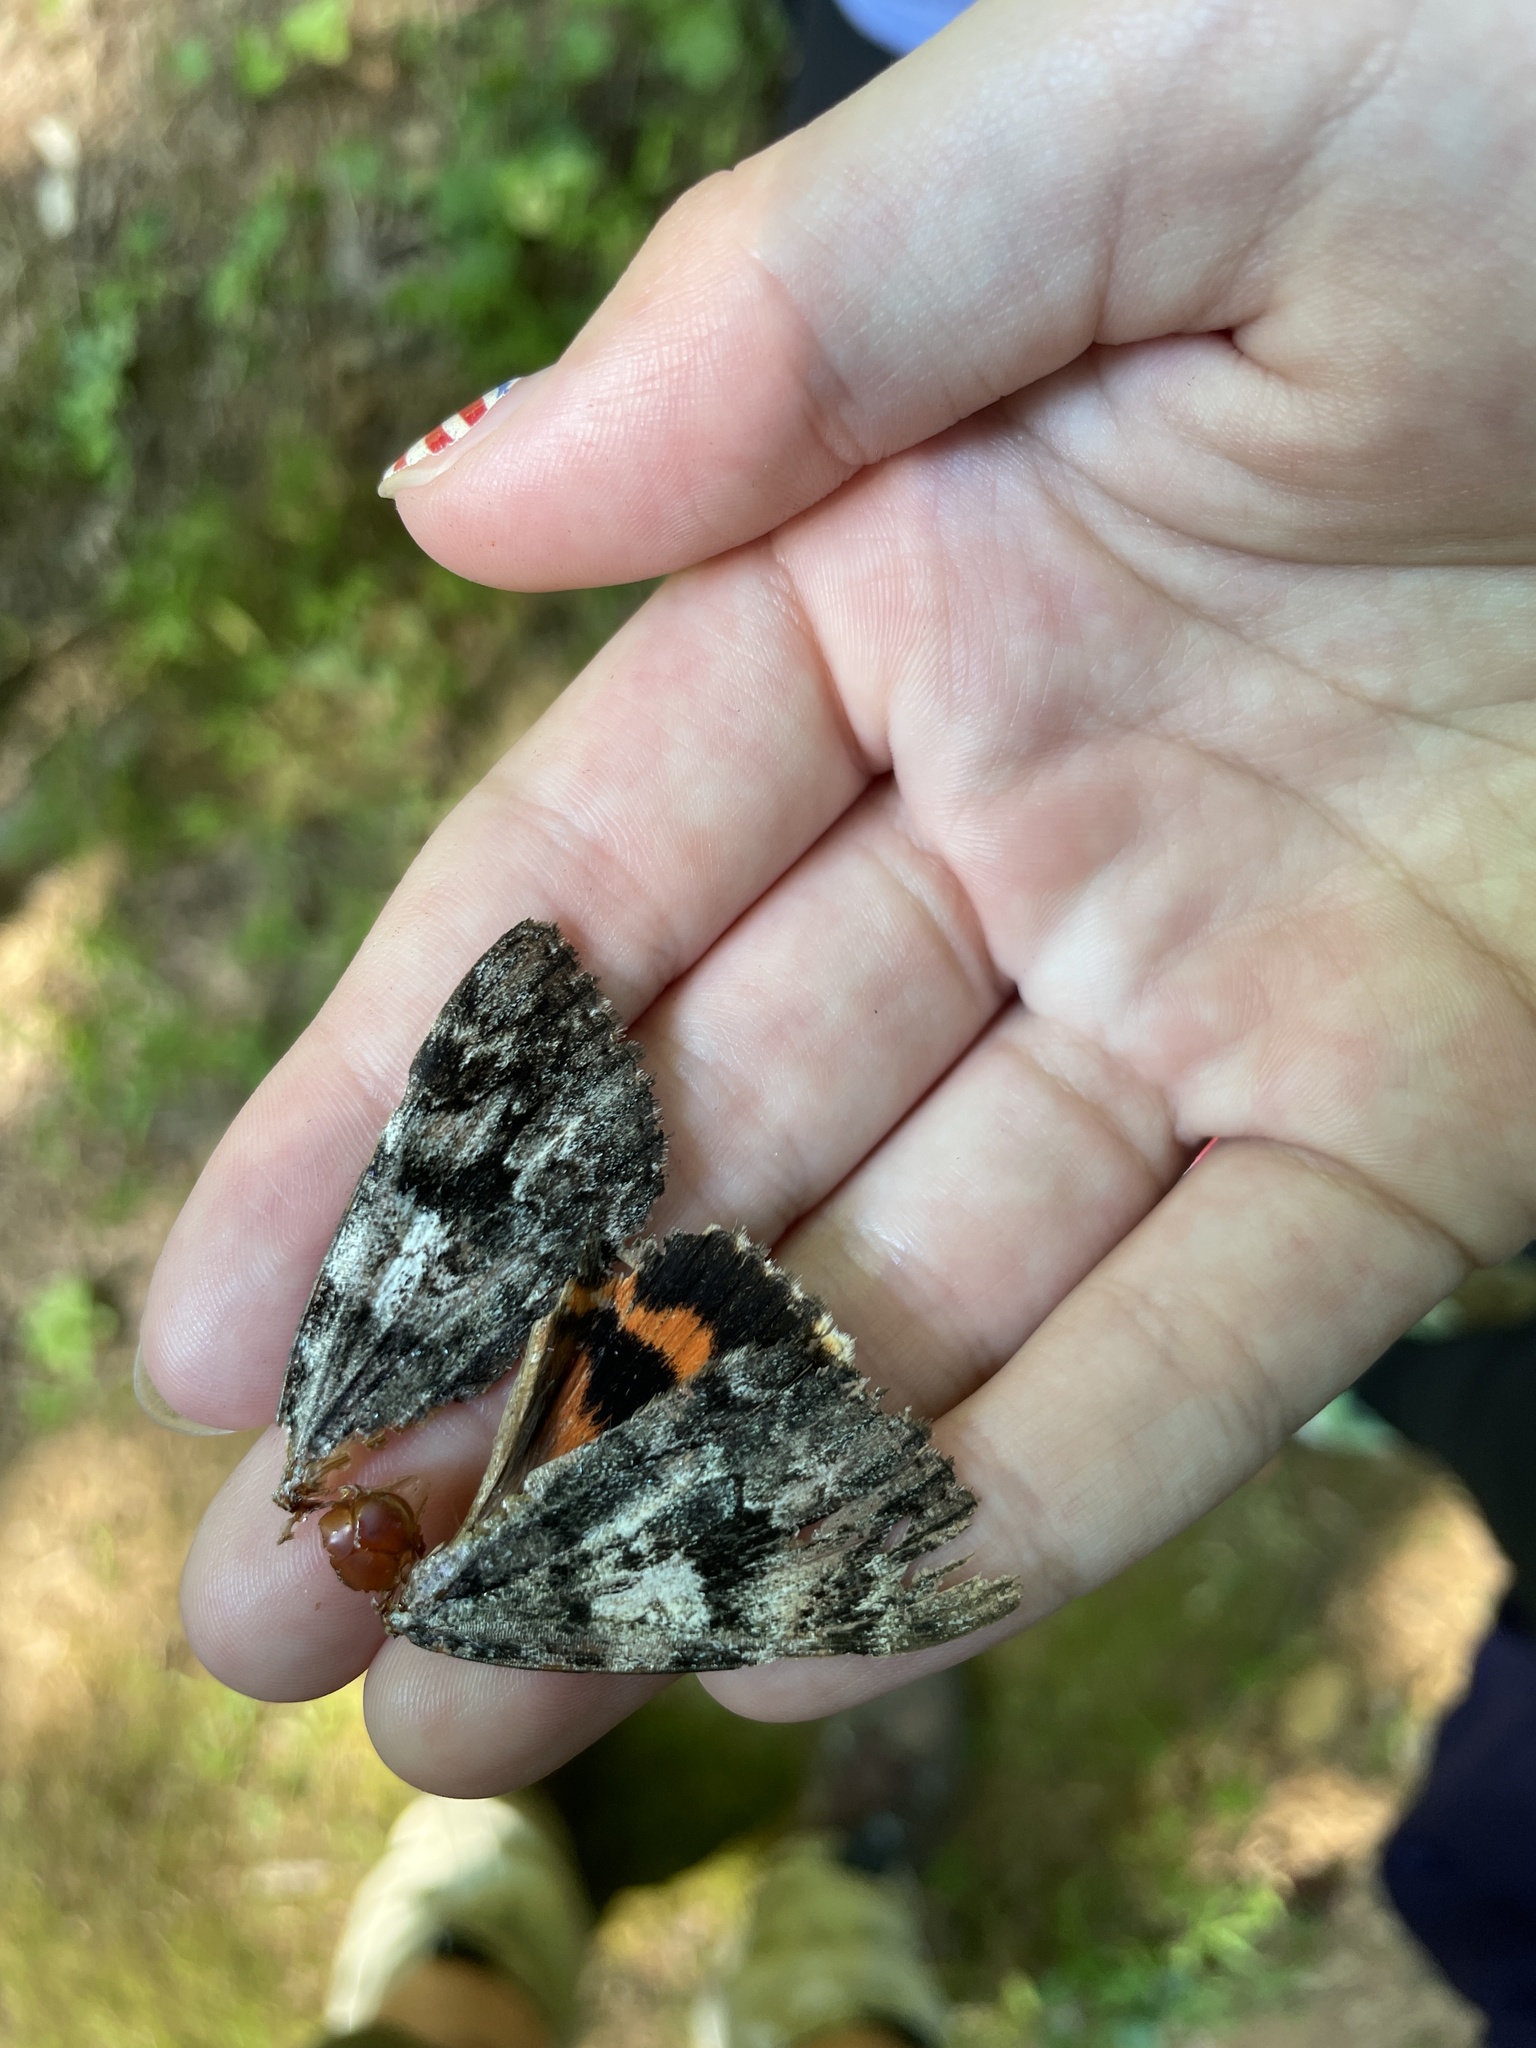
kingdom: Animalia
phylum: Arthropoda
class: Insecta
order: Lepidoptera
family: Erebidae
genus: Catocala
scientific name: Catocala palaeogama
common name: Oldwife underwing
